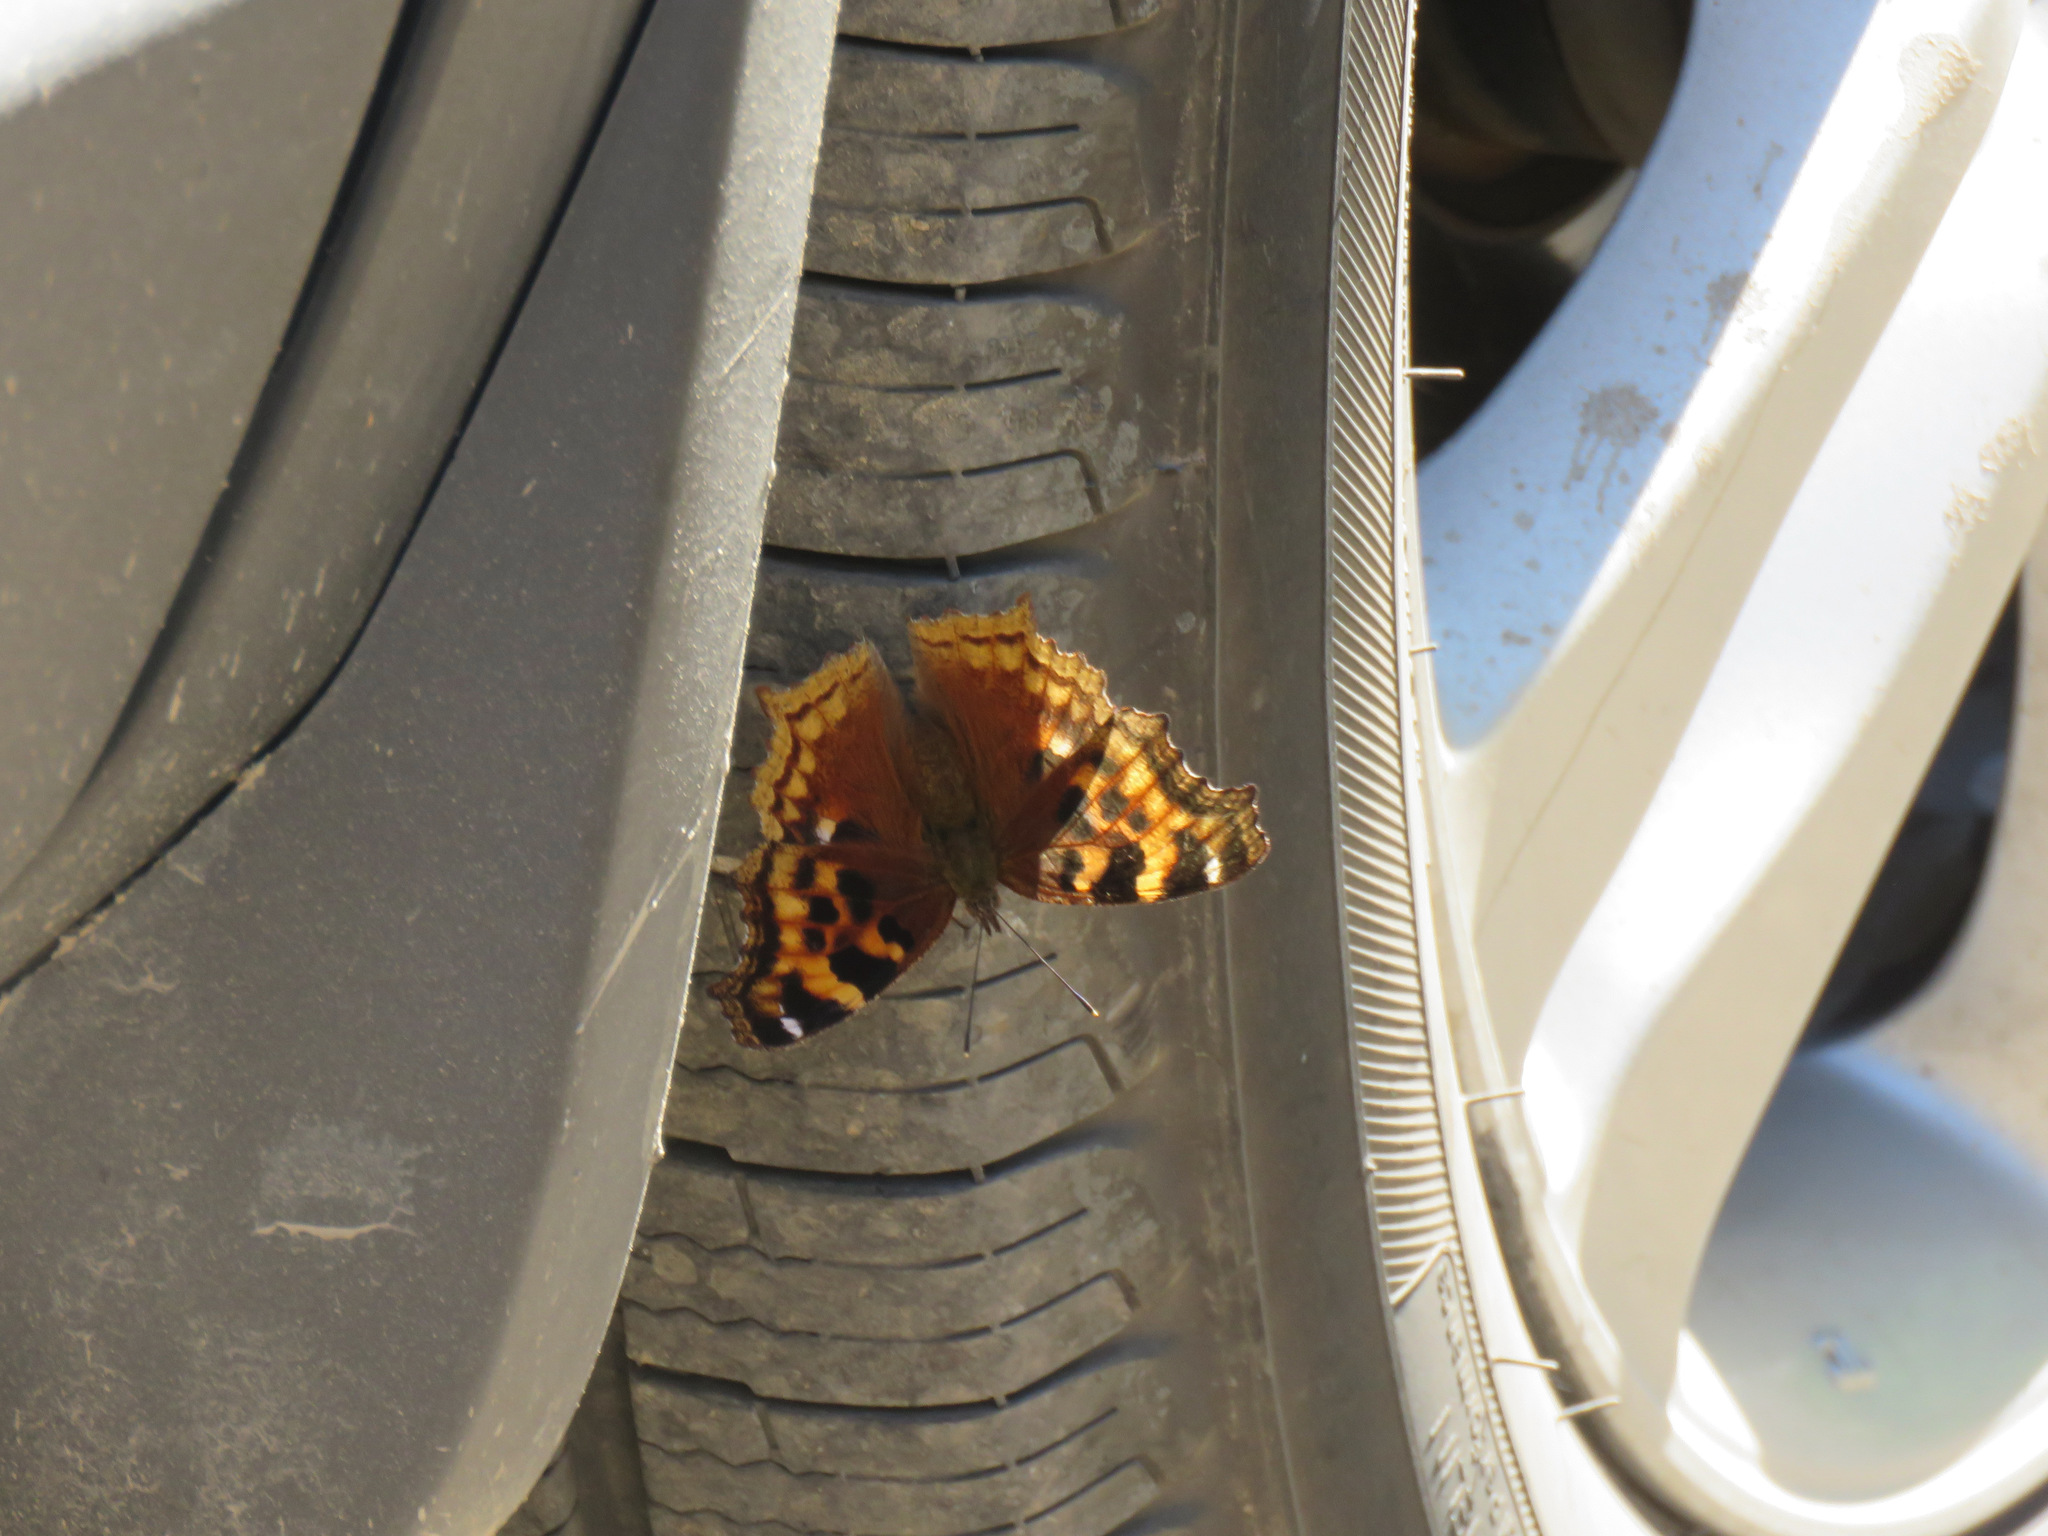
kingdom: Animalia
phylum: Arthropoda
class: Insecta
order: Lepidoptera
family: Nymphalidae
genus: Polygonia
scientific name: Polygonia vaualbum
